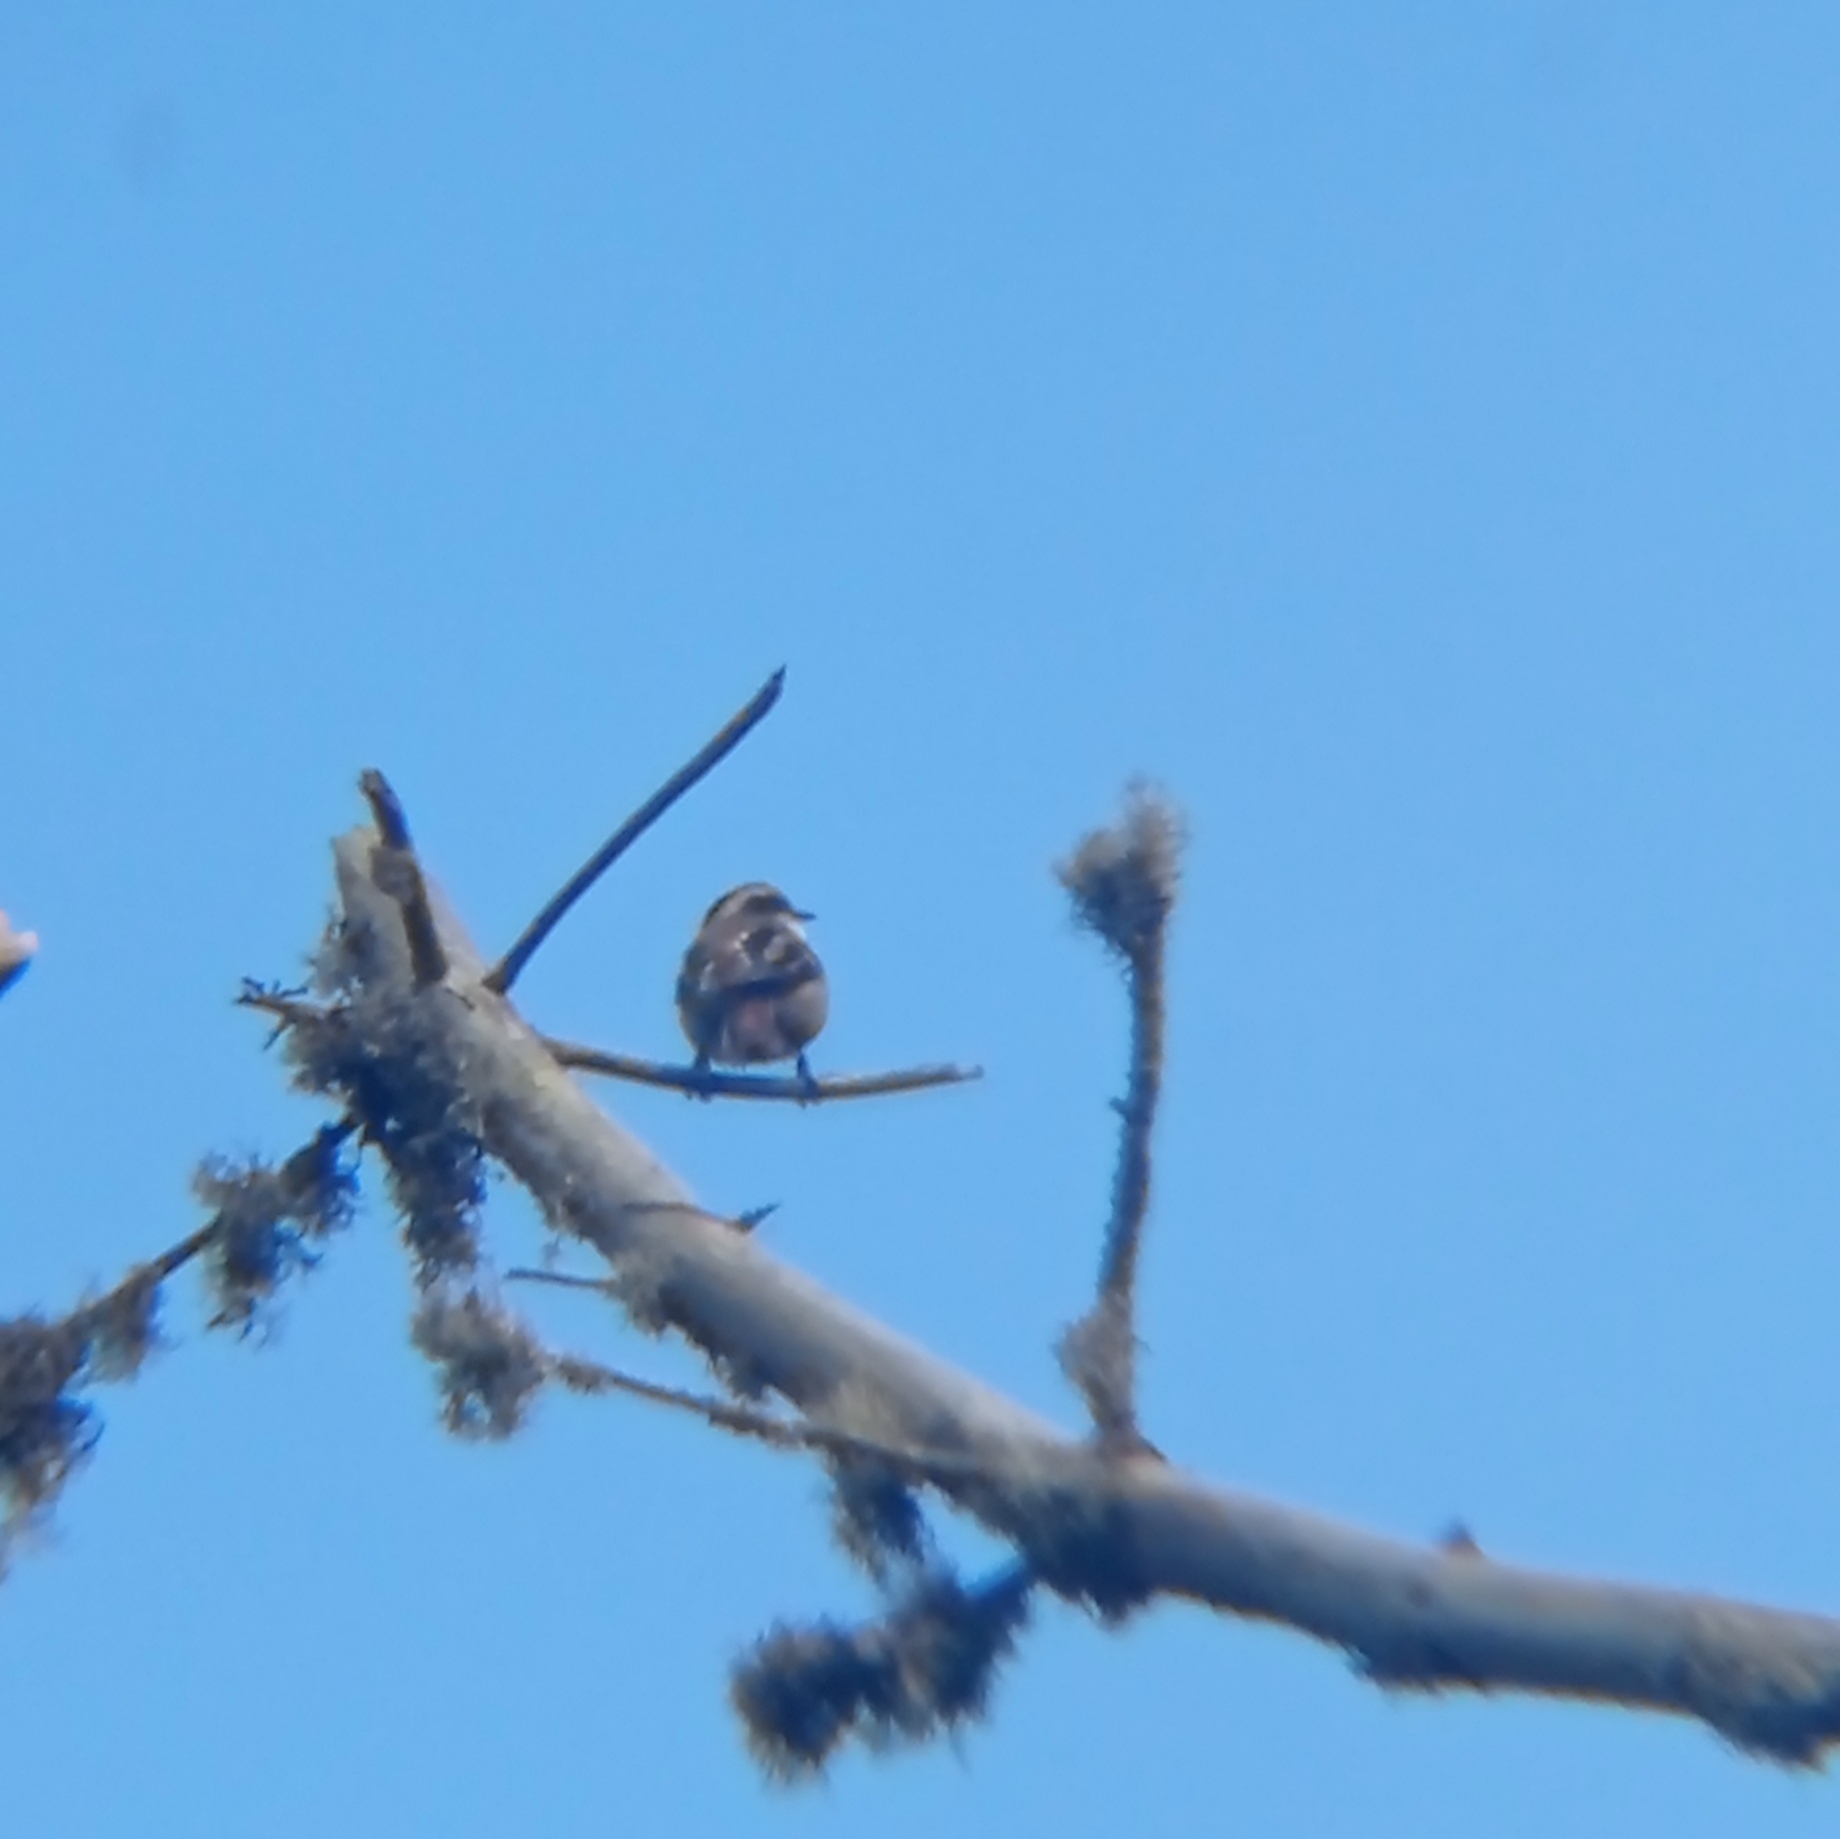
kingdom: Animalia
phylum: Chordata
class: Aves
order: Passeriformes
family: Furnariidae
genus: Aphrastura
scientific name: Aphrastura spinicauda
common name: Thorn-tailed rayadito
